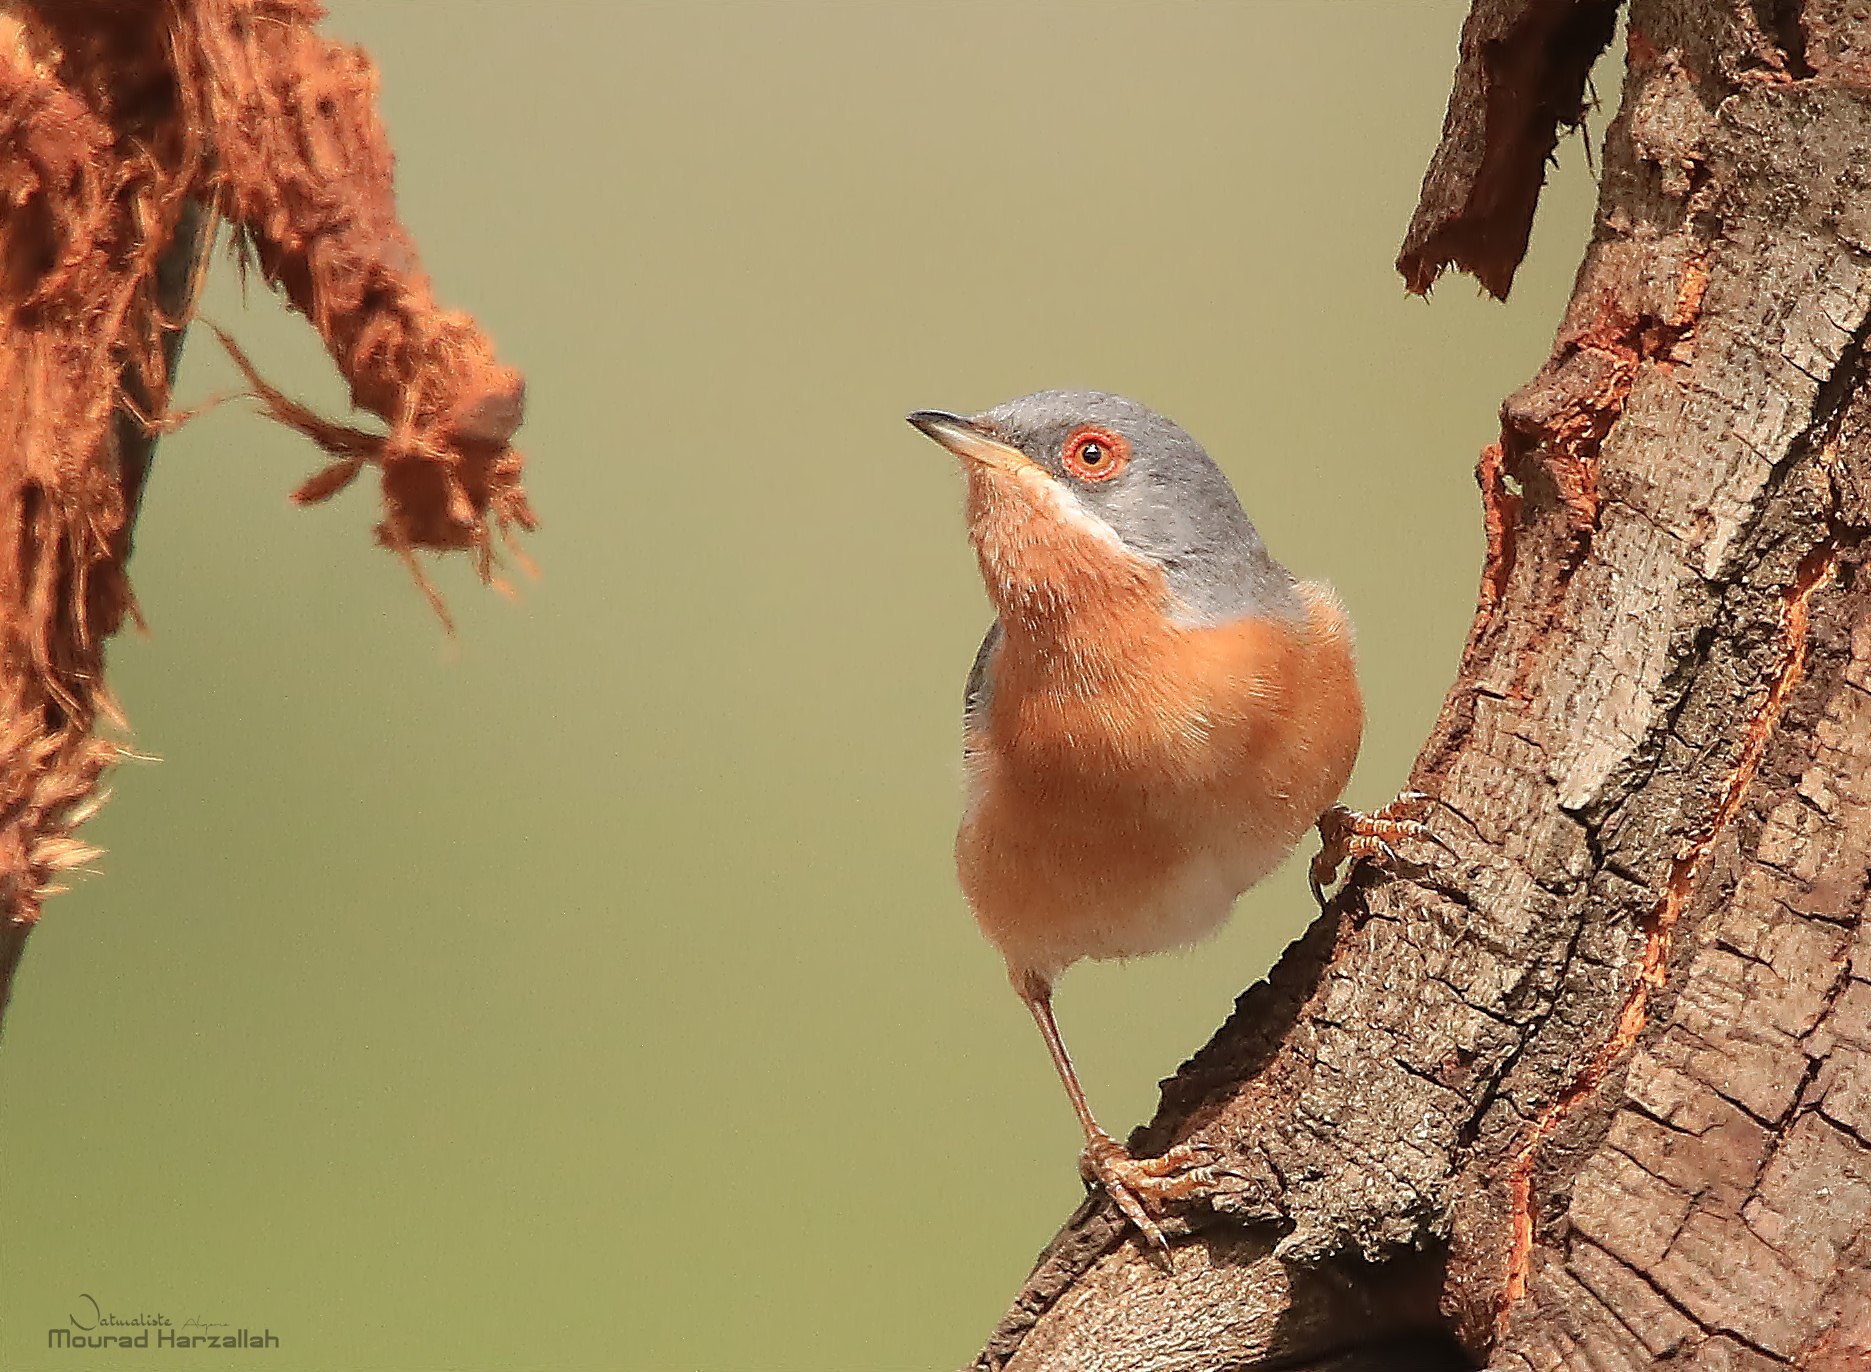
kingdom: Animalia
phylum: Chordata
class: Aves
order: Passeriformes
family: Sylviidae
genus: Curruca
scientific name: Curruca iberiae
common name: Western subalpine warbler
